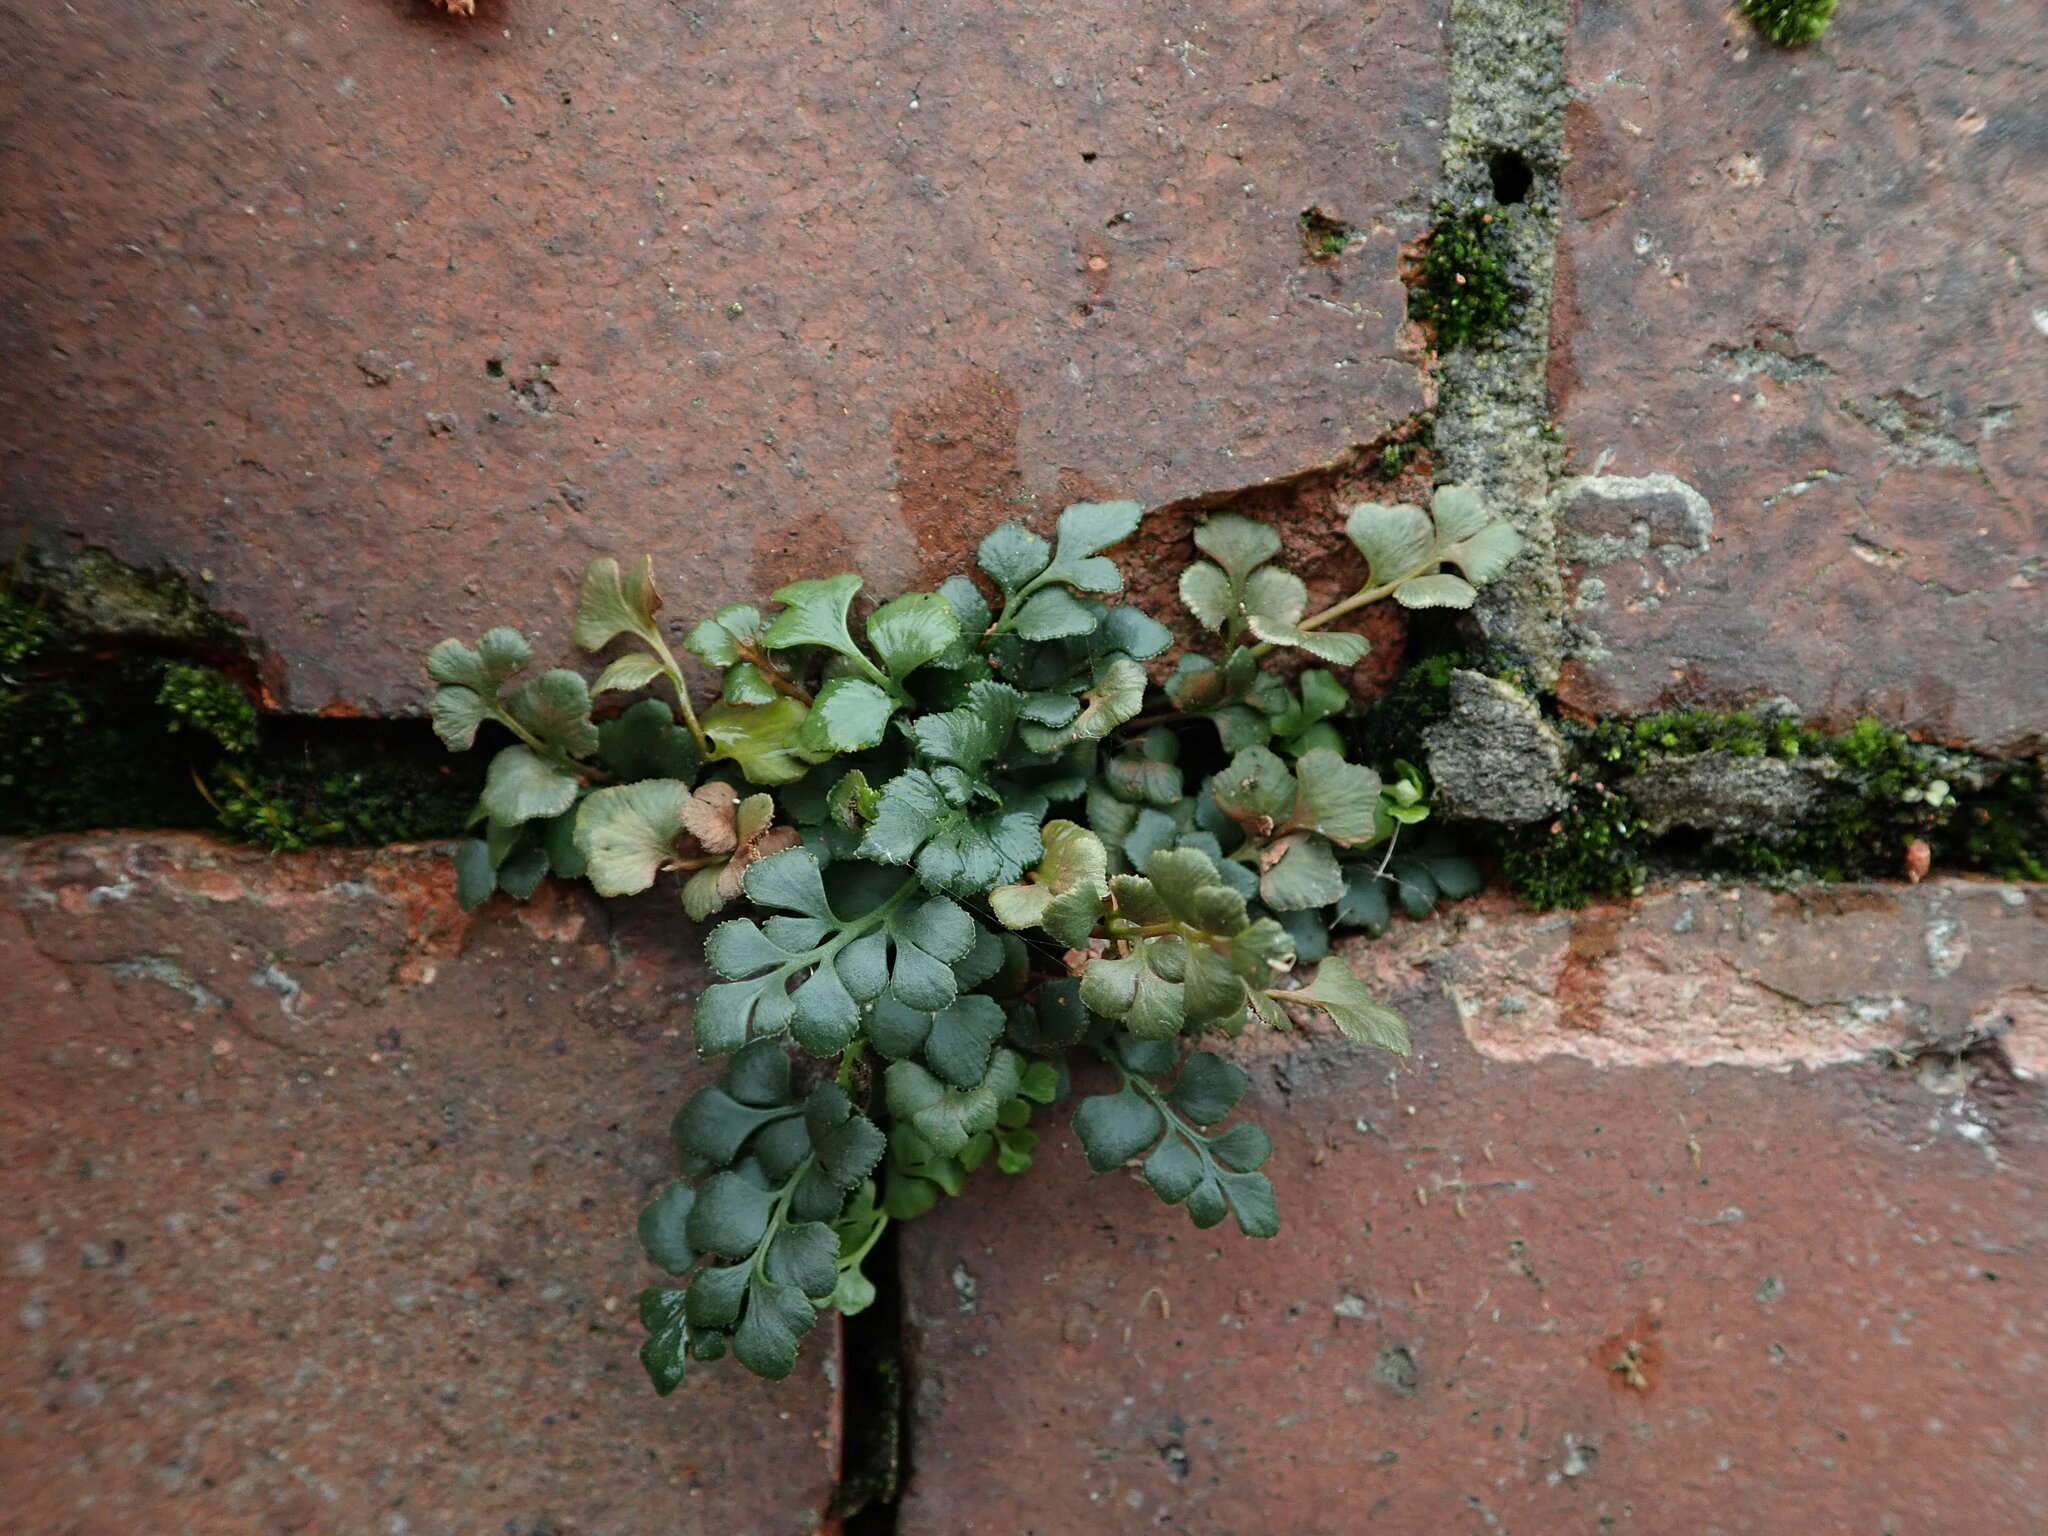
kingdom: Plantae
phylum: Tracheophyta
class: Polypodiopsida
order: Polypodiales
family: Aspleniaceae
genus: Asplenium
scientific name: Asplenium ruta-muraria
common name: Wall-rue
